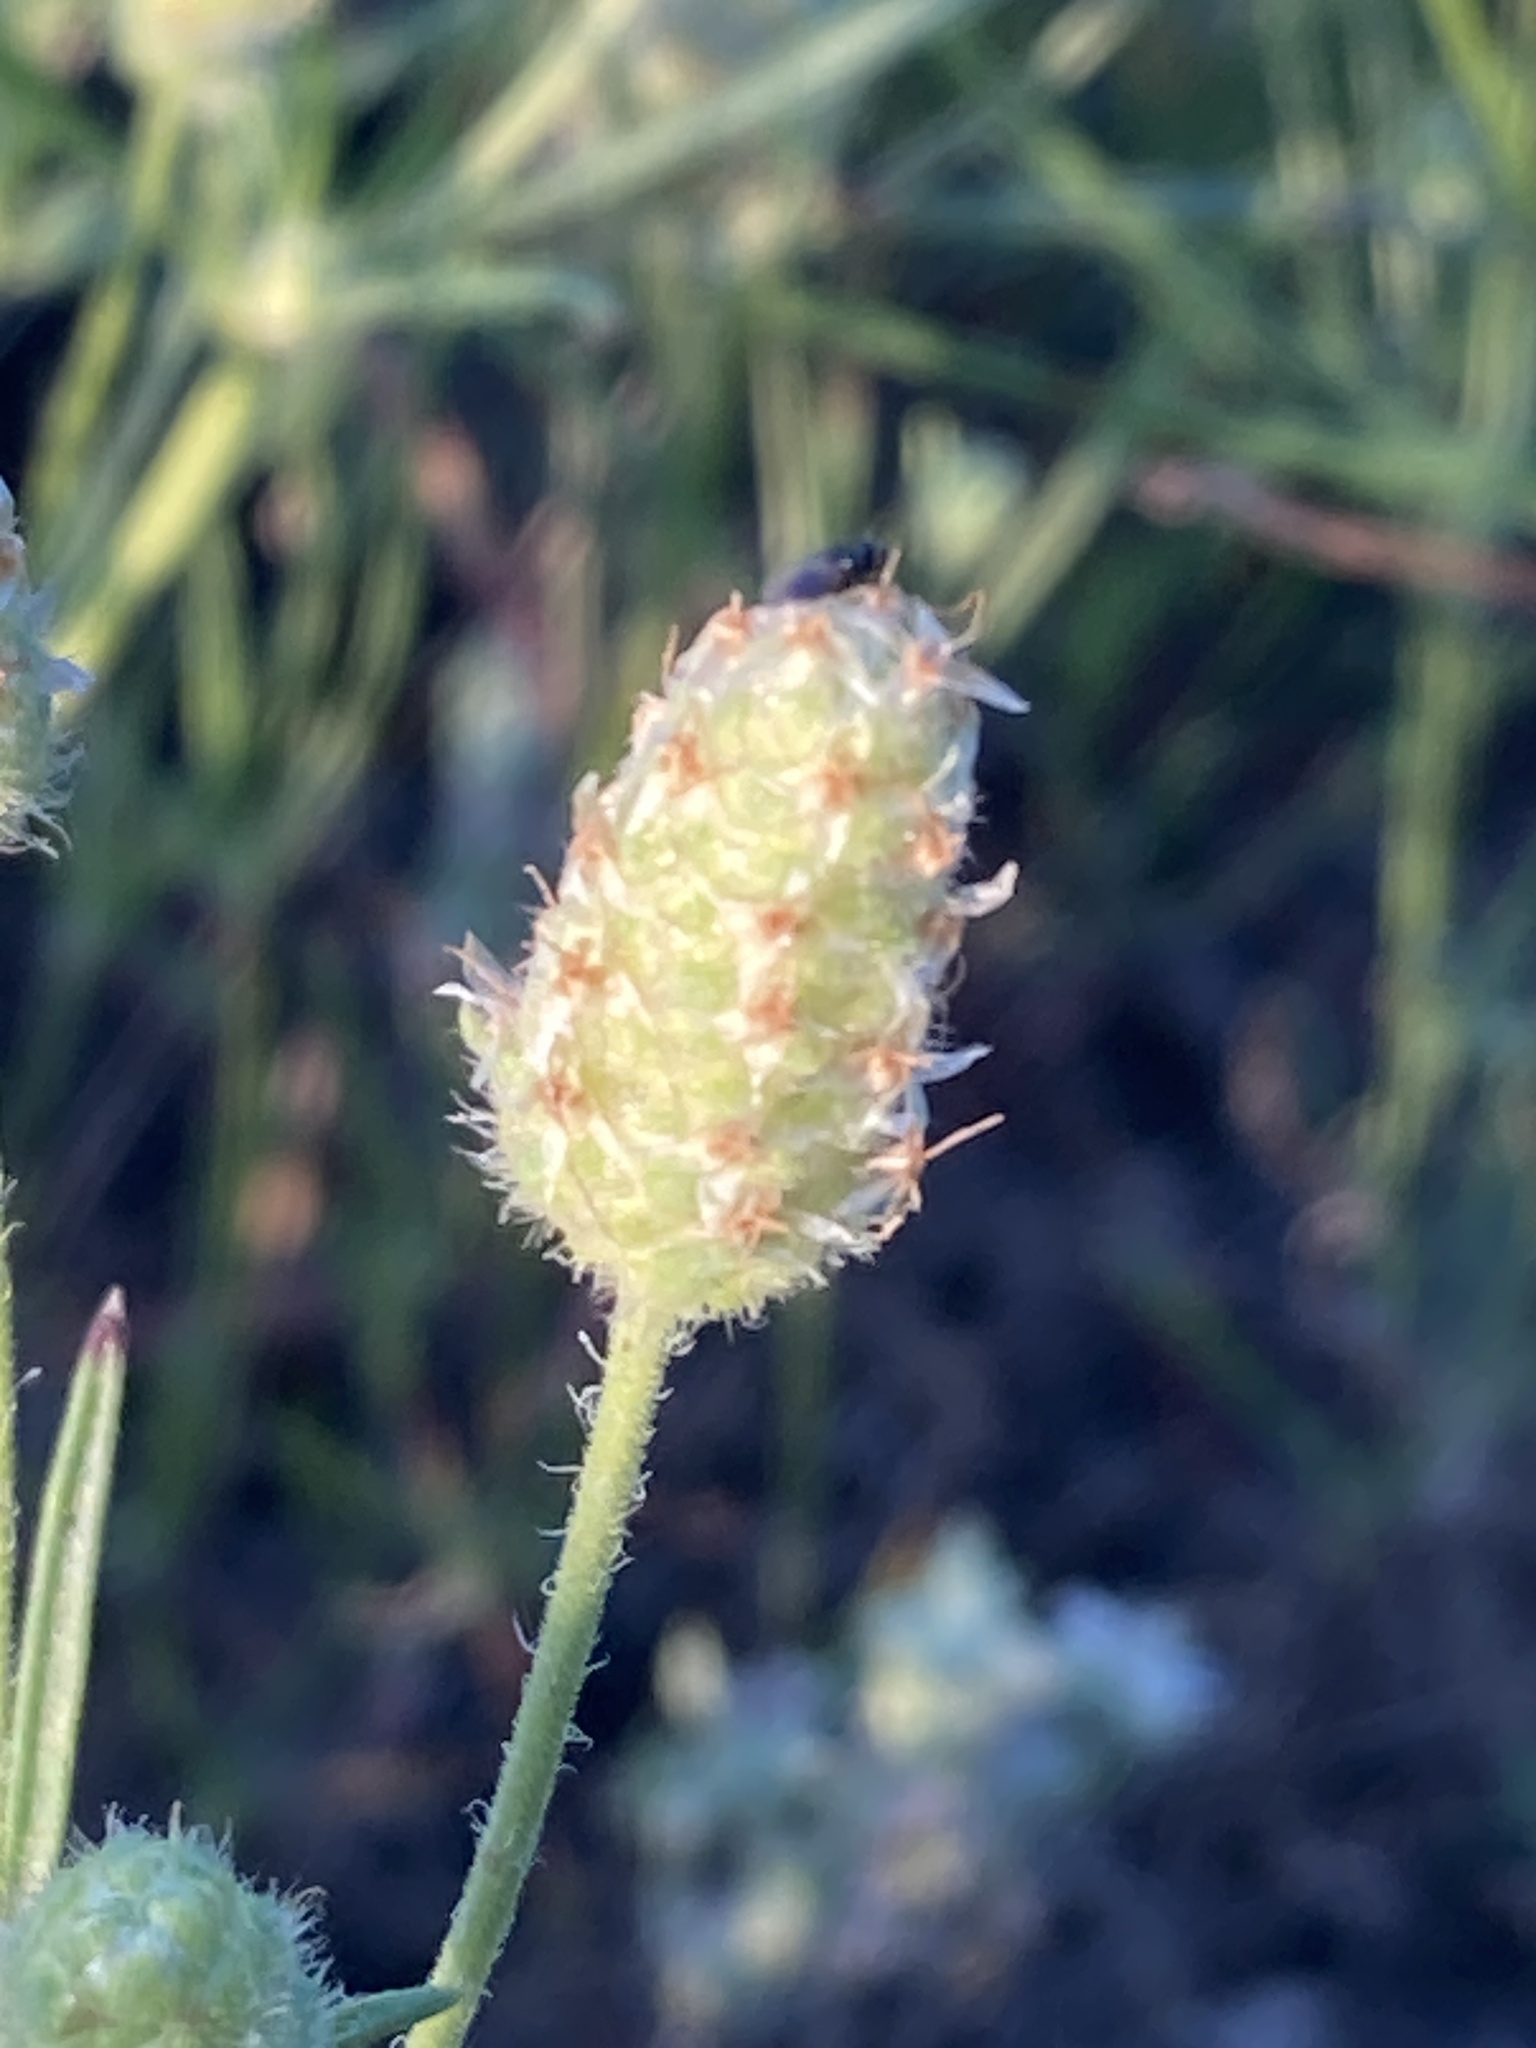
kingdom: Plantae
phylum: Tracheophyta
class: Magnoliopsida
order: Lamiales
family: Plantaginaceae
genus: Plantago
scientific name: Plantago arenaria
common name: Branched plantain
